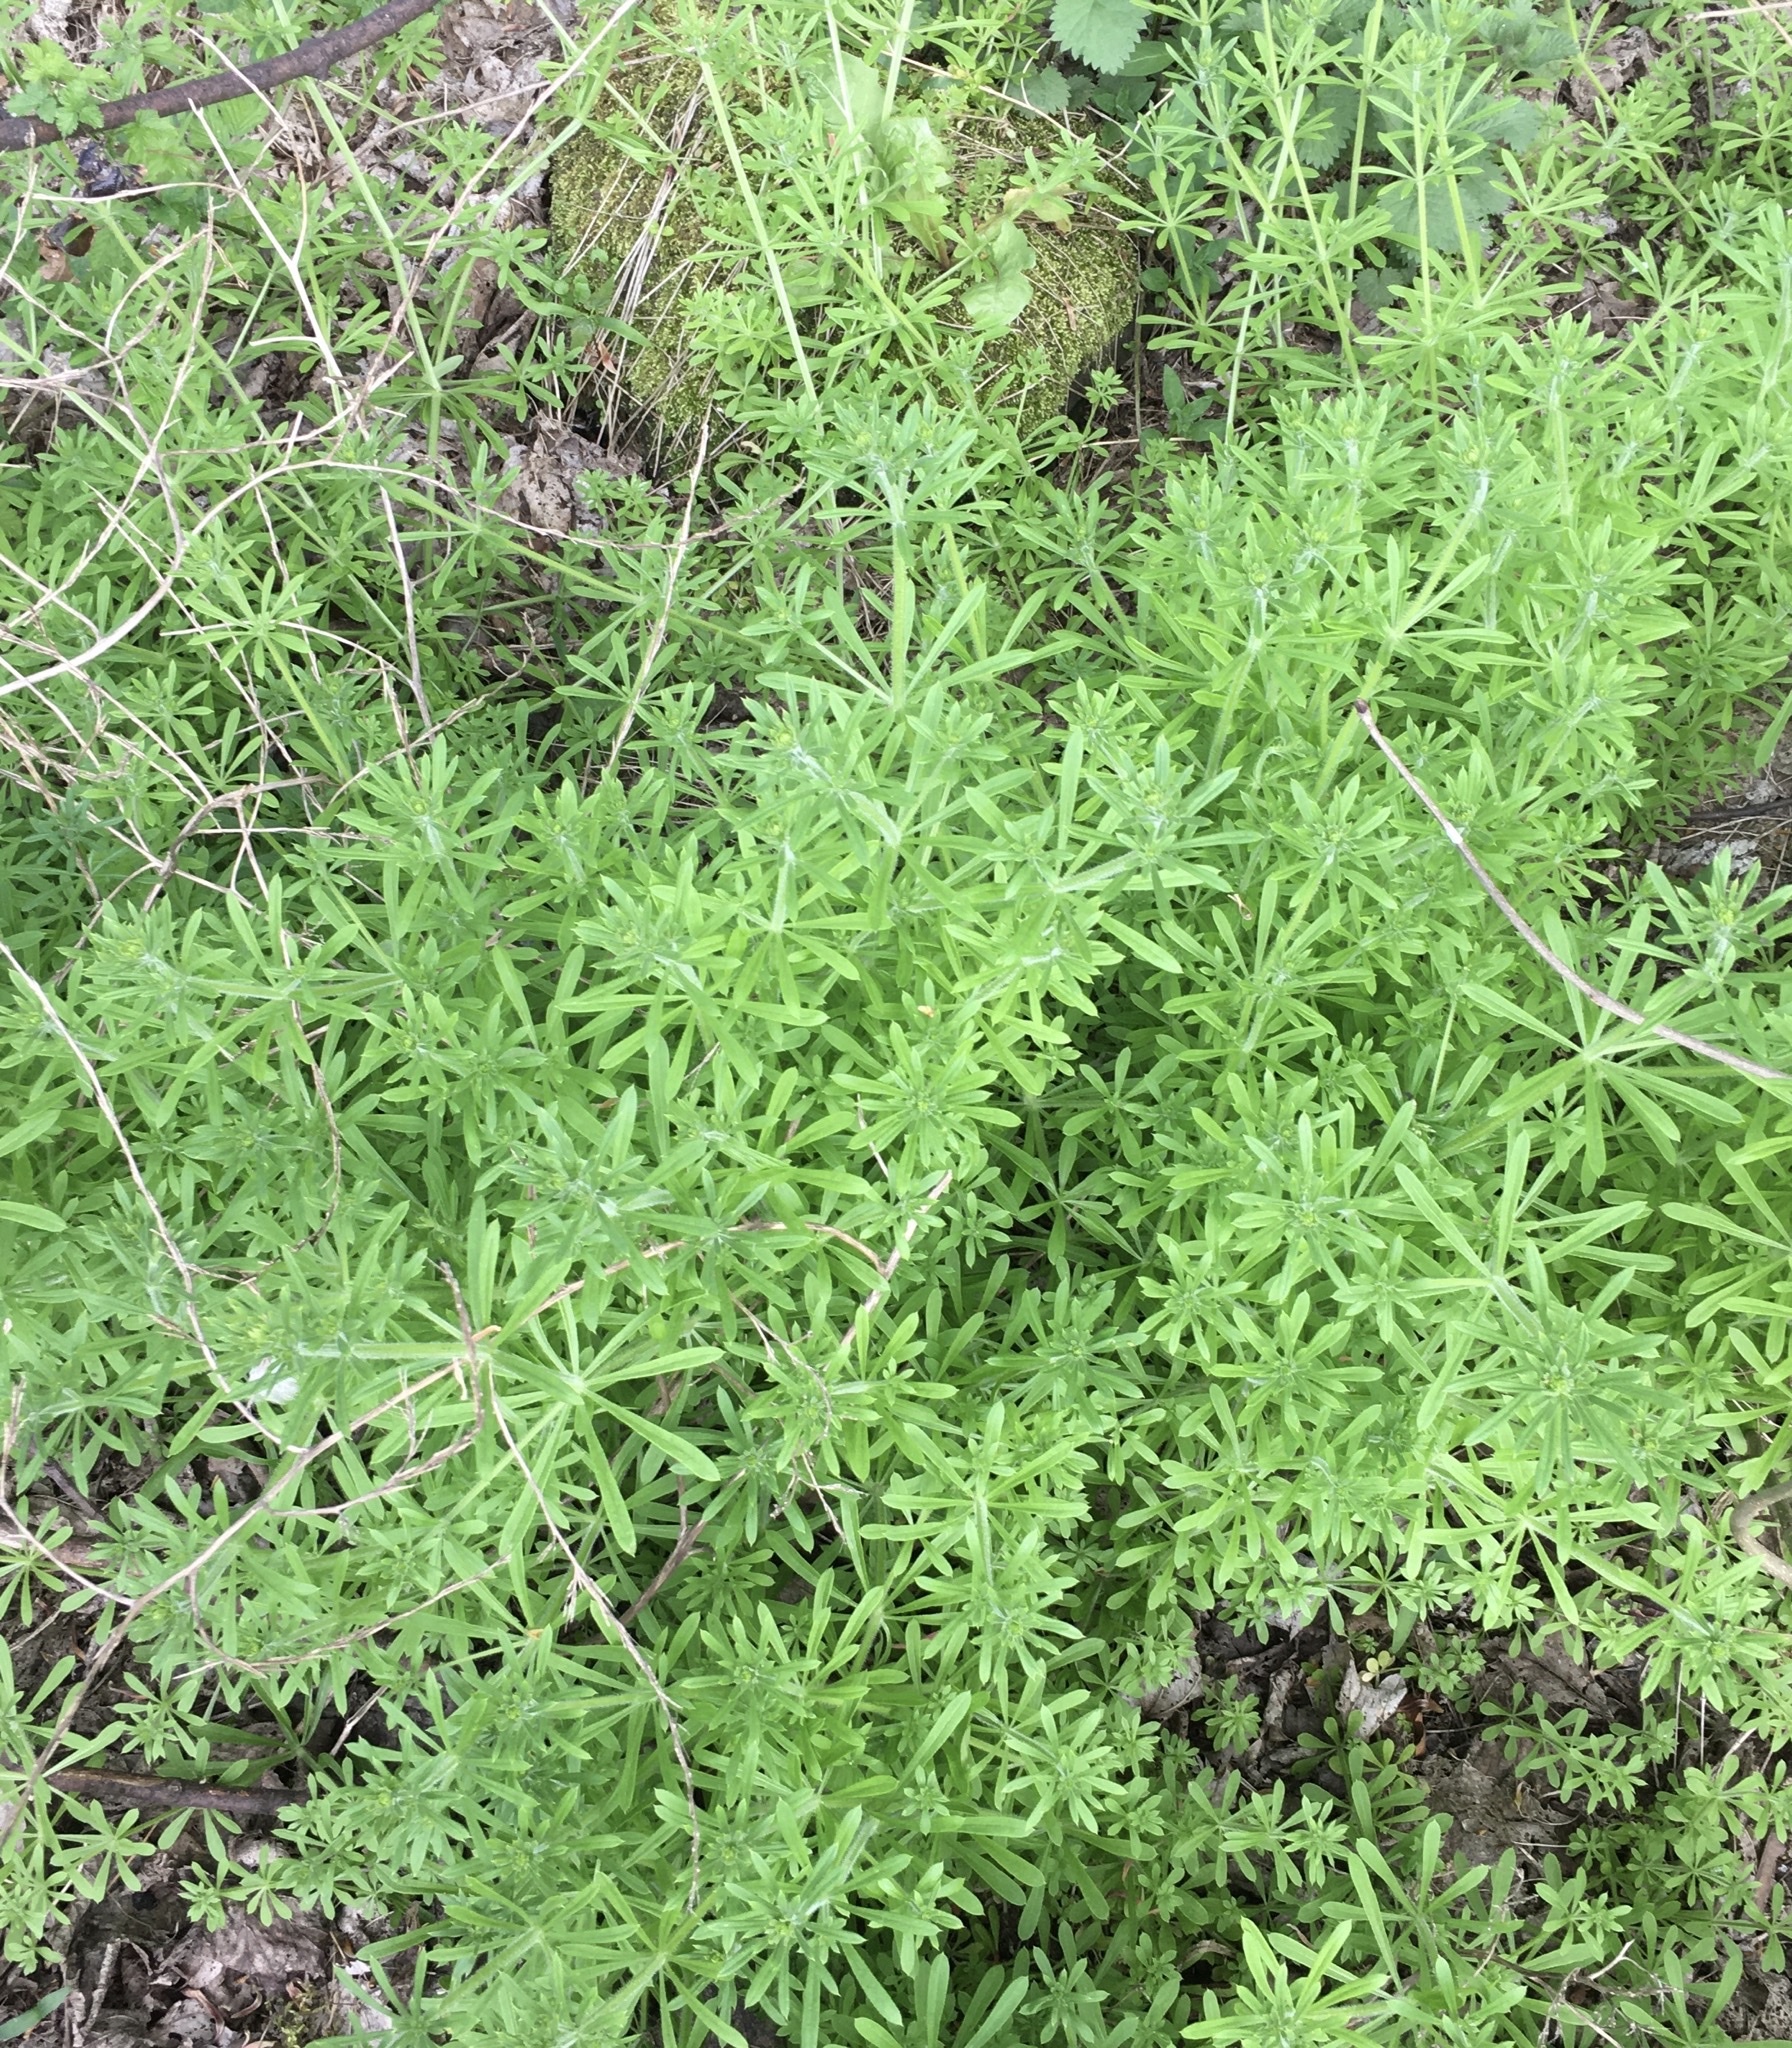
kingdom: Plantae
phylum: Tracheophyta
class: Magnoliopsida
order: Gentianales
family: Rubiaceae
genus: Galium
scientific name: Galium aparine
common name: Cleavers
